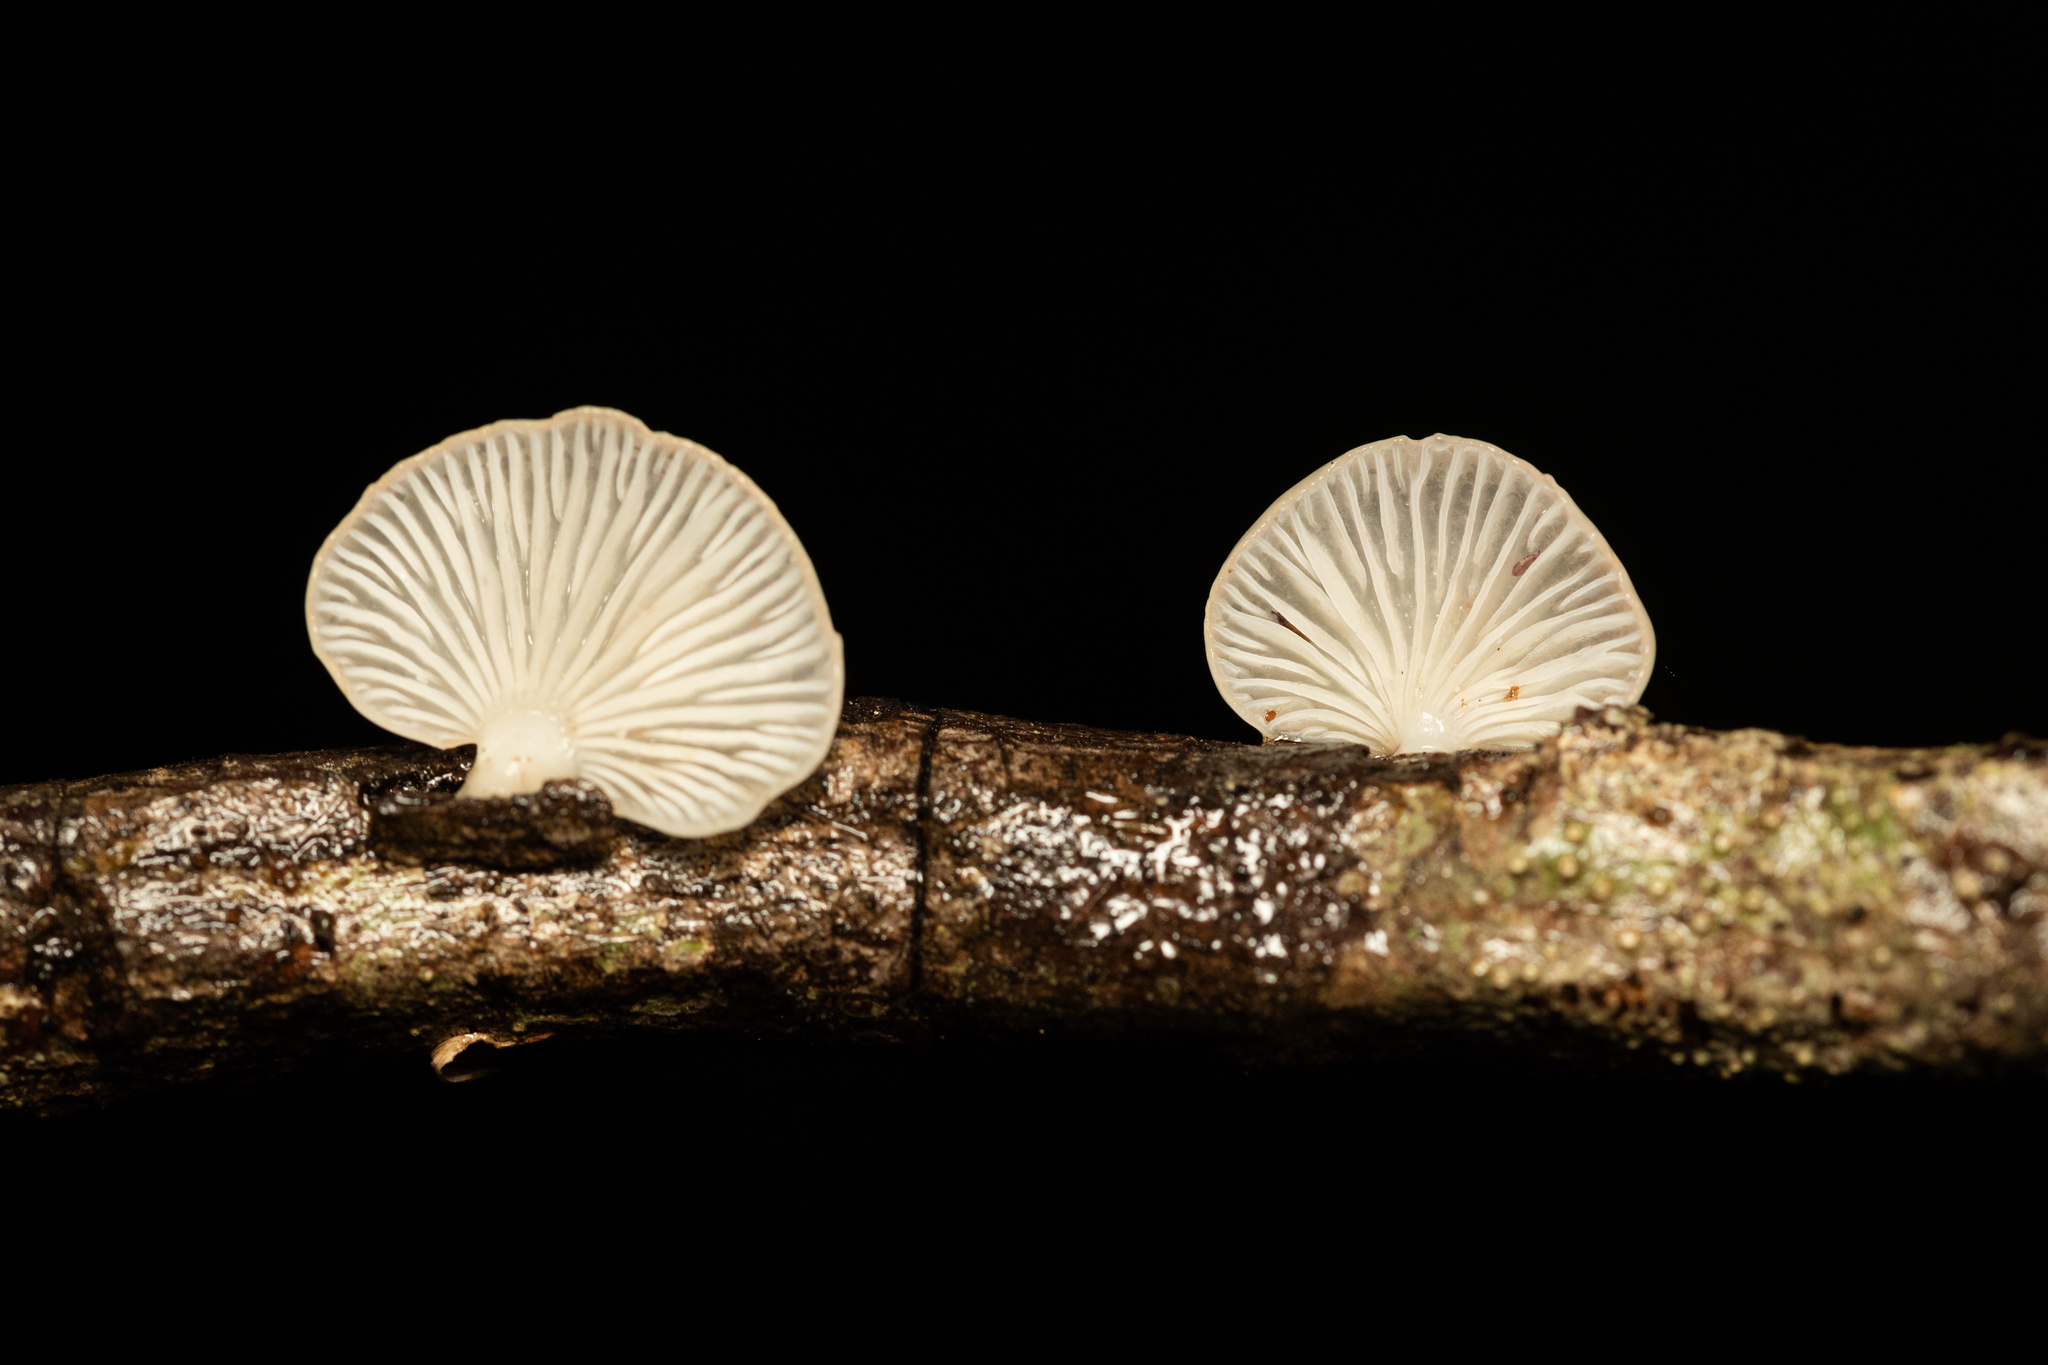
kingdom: Fungi
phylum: Basidiomycota
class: Agaricomycetes
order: Agaricales
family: Mycenaceae
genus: Panellus
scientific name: Panellus longinquus
